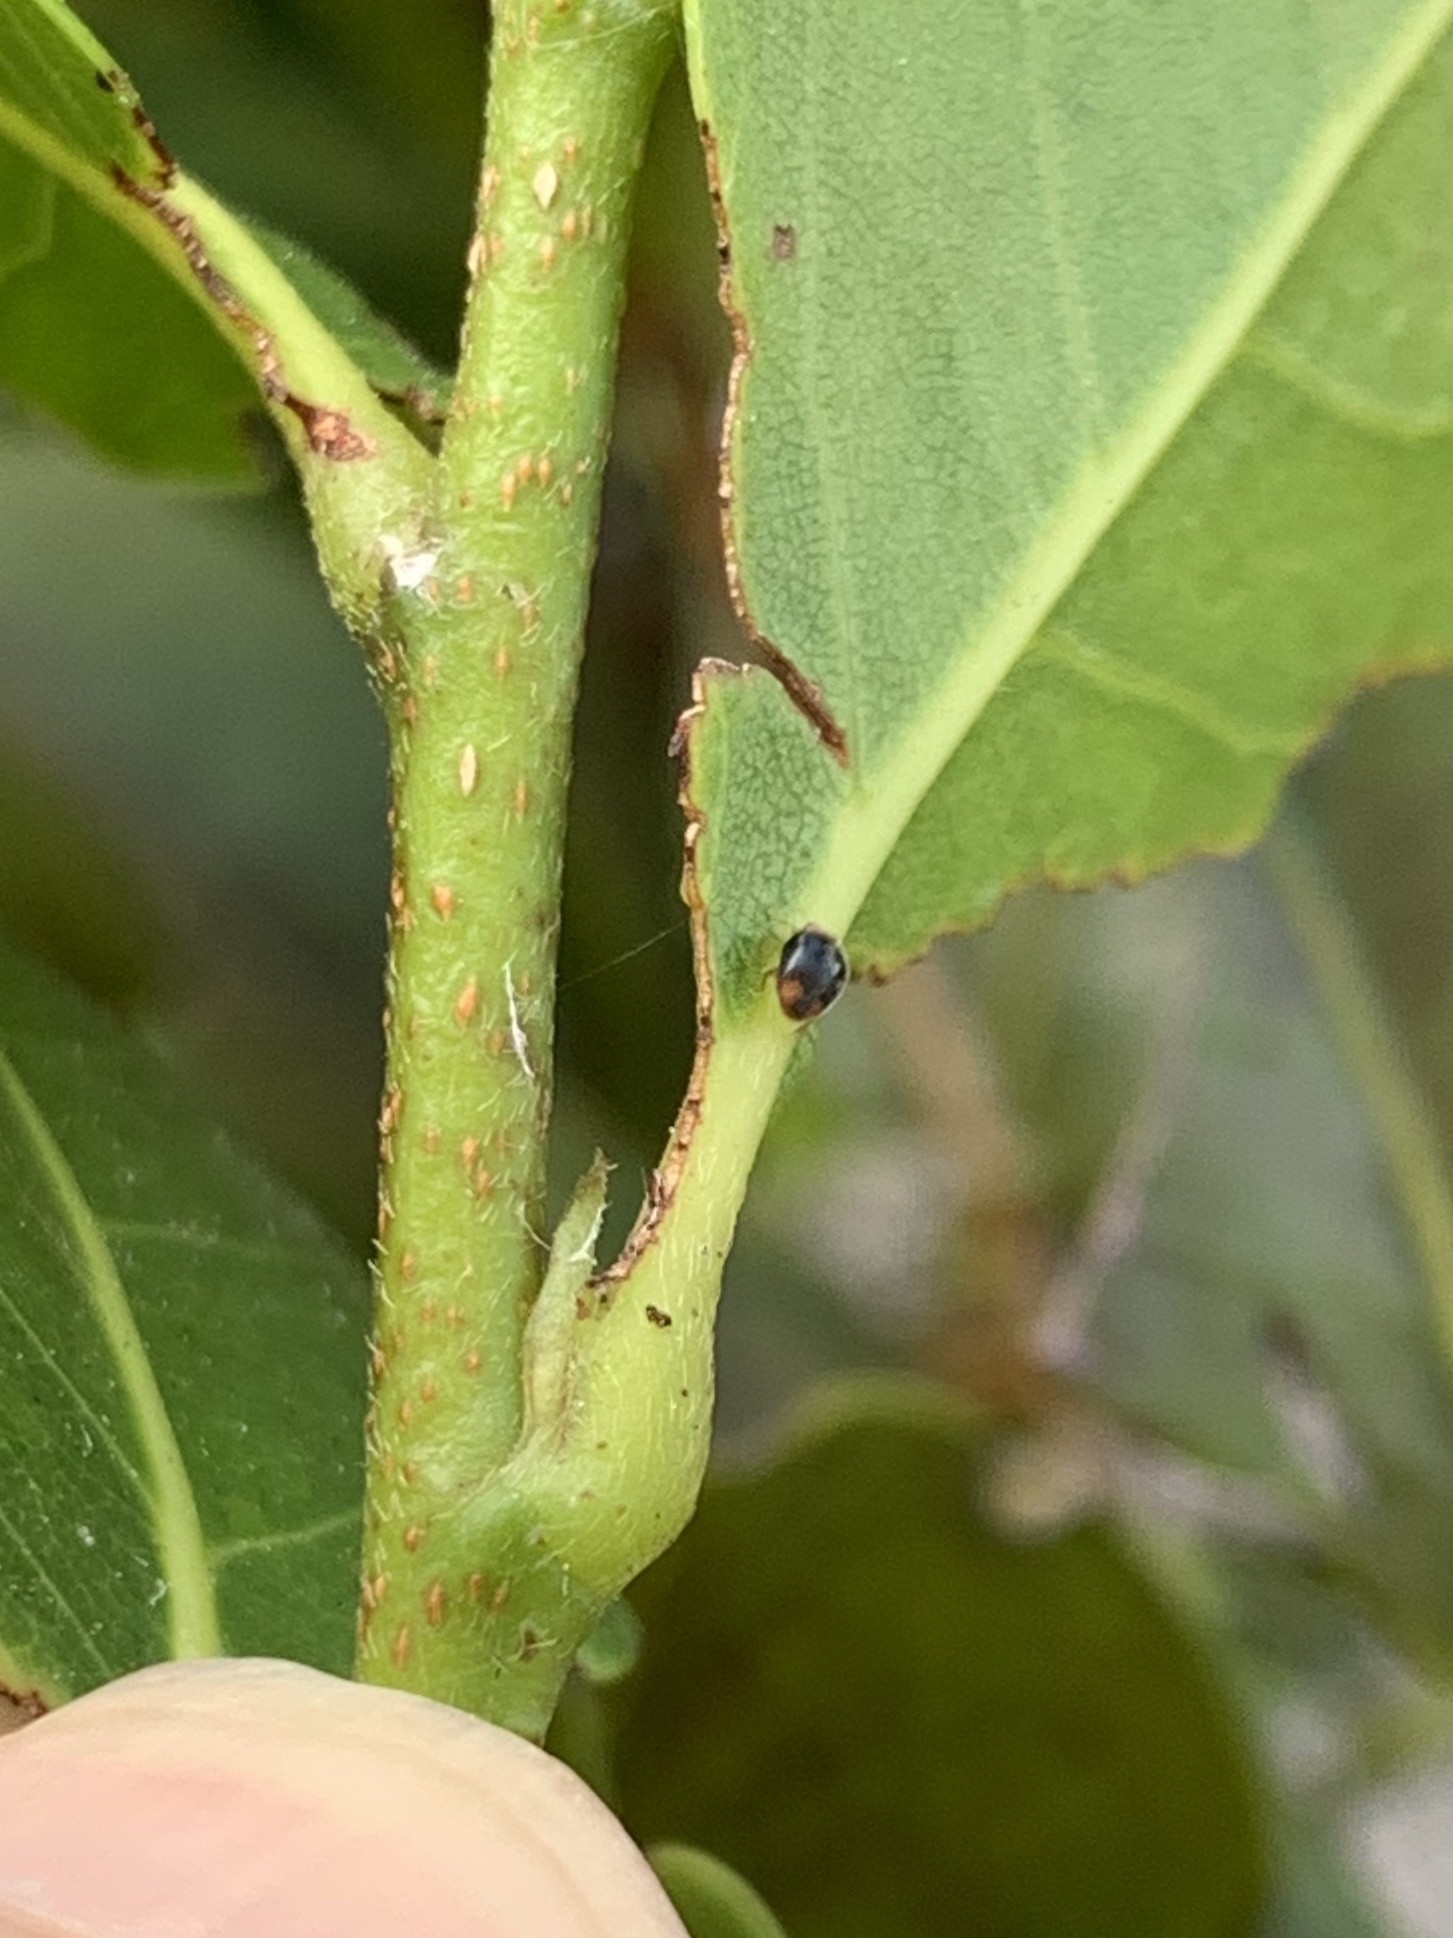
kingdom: Animalia
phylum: Arthropoda
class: Insecta
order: Coleoptera
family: Coccinellidae
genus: Diomus
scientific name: Diomus roseicollis
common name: Ladybird beetle
